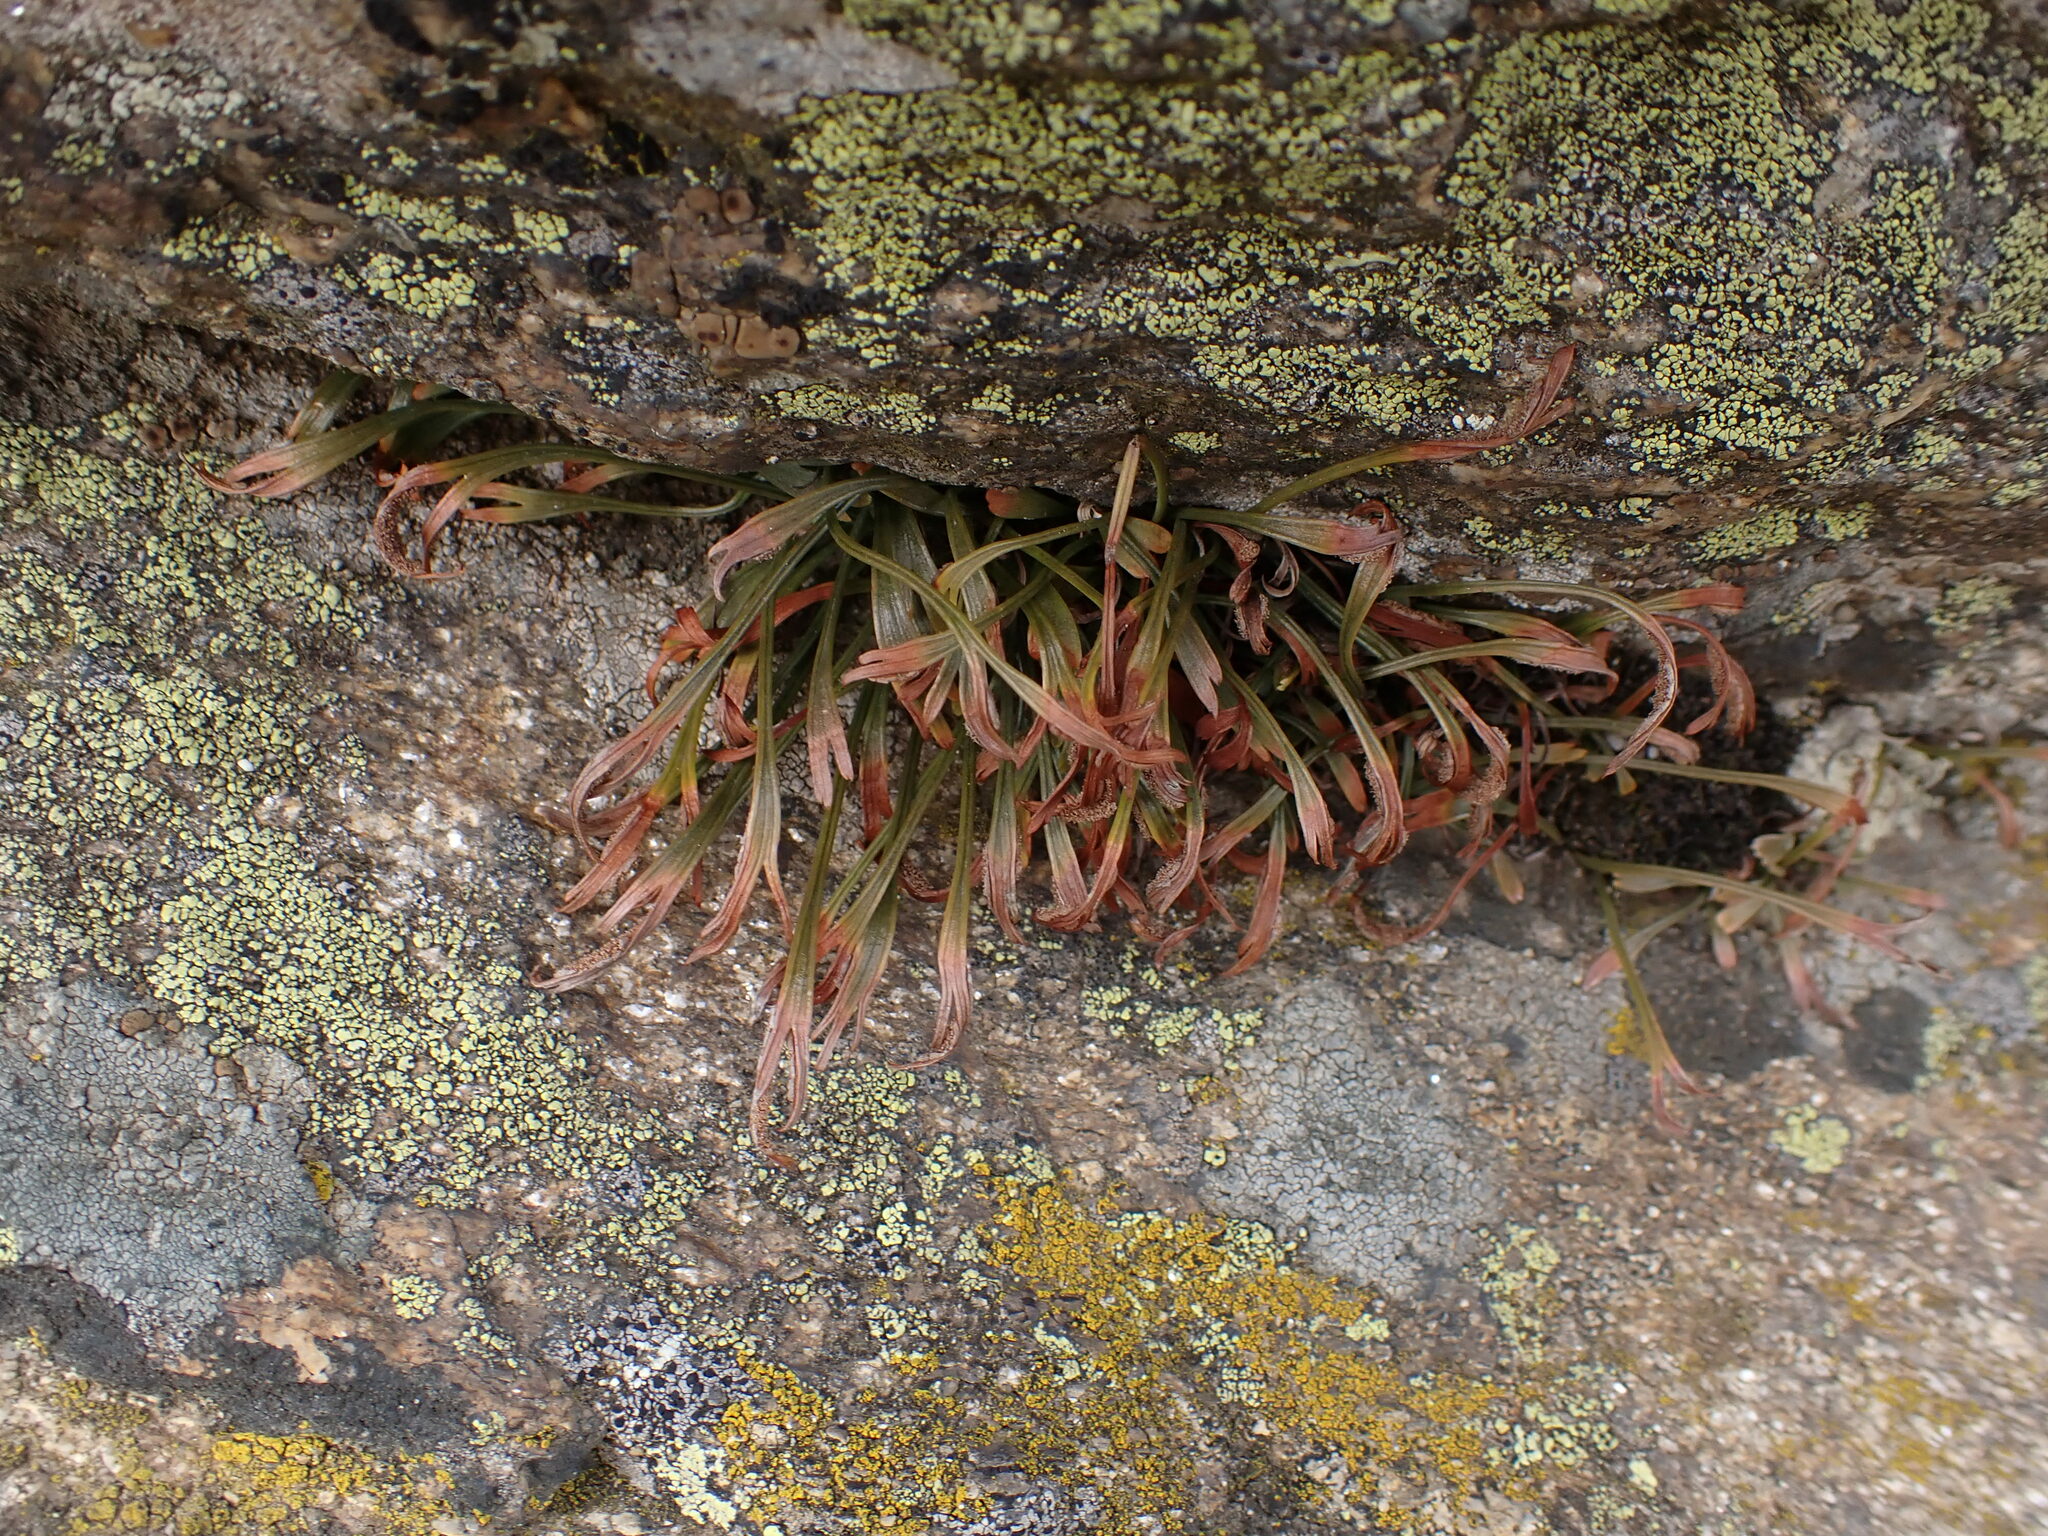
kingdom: Plantae
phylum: Tracheophyta
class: Polypodiopsida
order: Polypodiales
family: Aspleniaceae
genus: Asplenium
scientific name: Asplenium septentrionale
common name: Forked spleenwort
